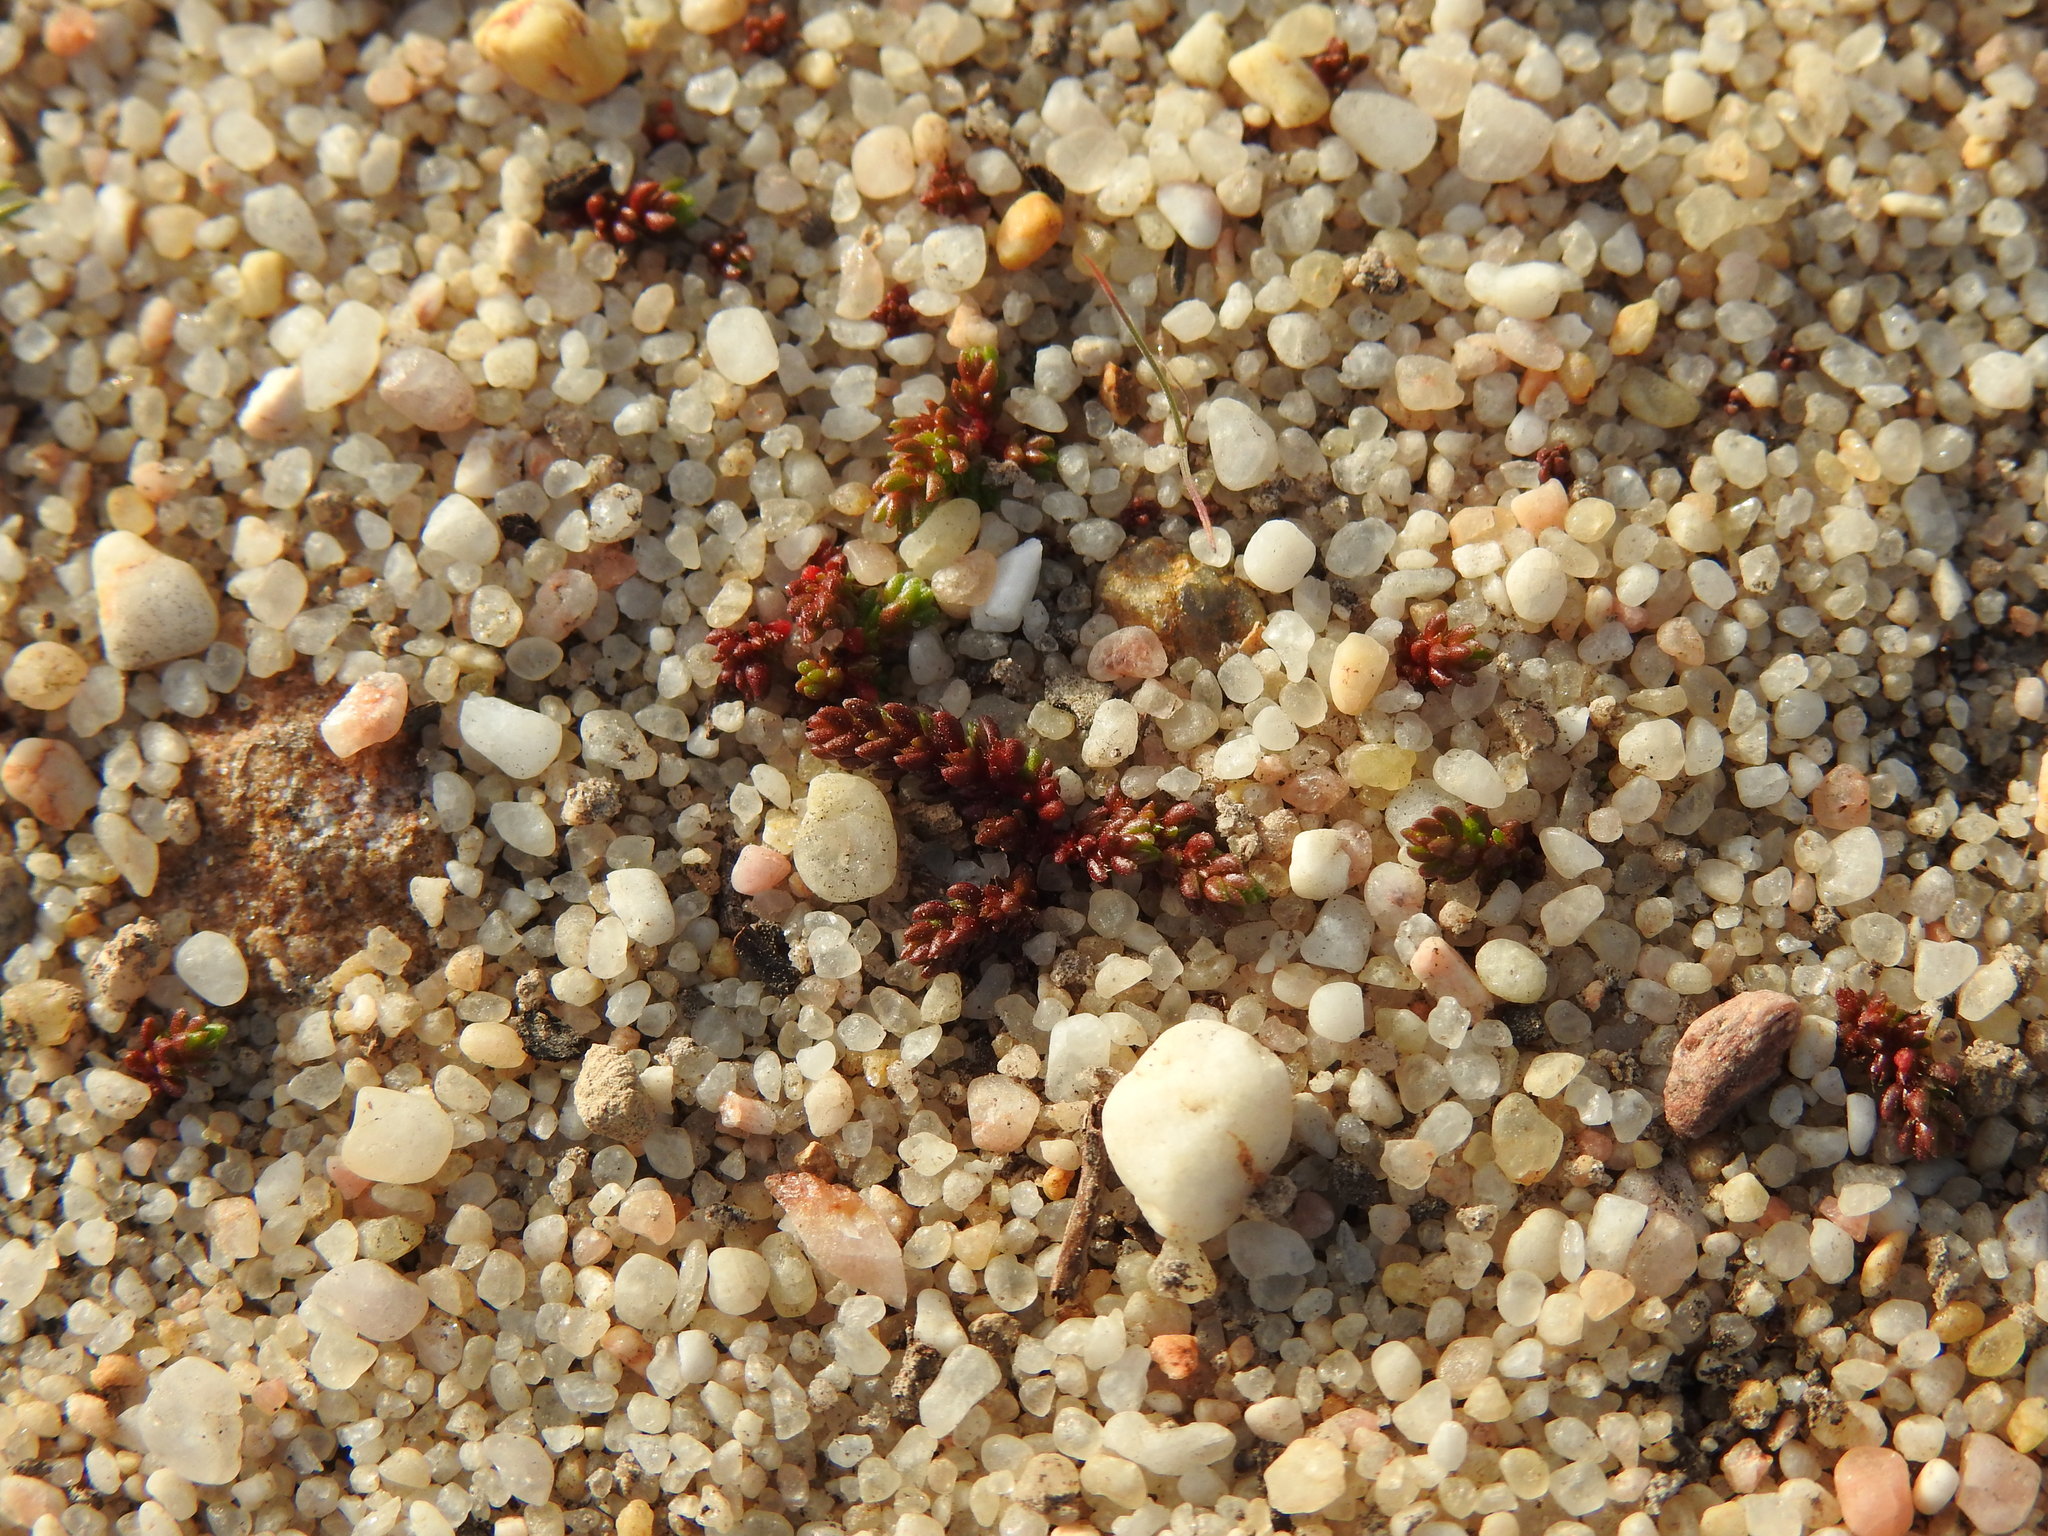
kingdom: Plantae
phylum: Tracheophyta
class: Magnoliopsida
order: Saxifragales
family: Crassulaceae
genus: Crassula
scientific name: Crassula tillaea
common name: Mossy stonecrop
